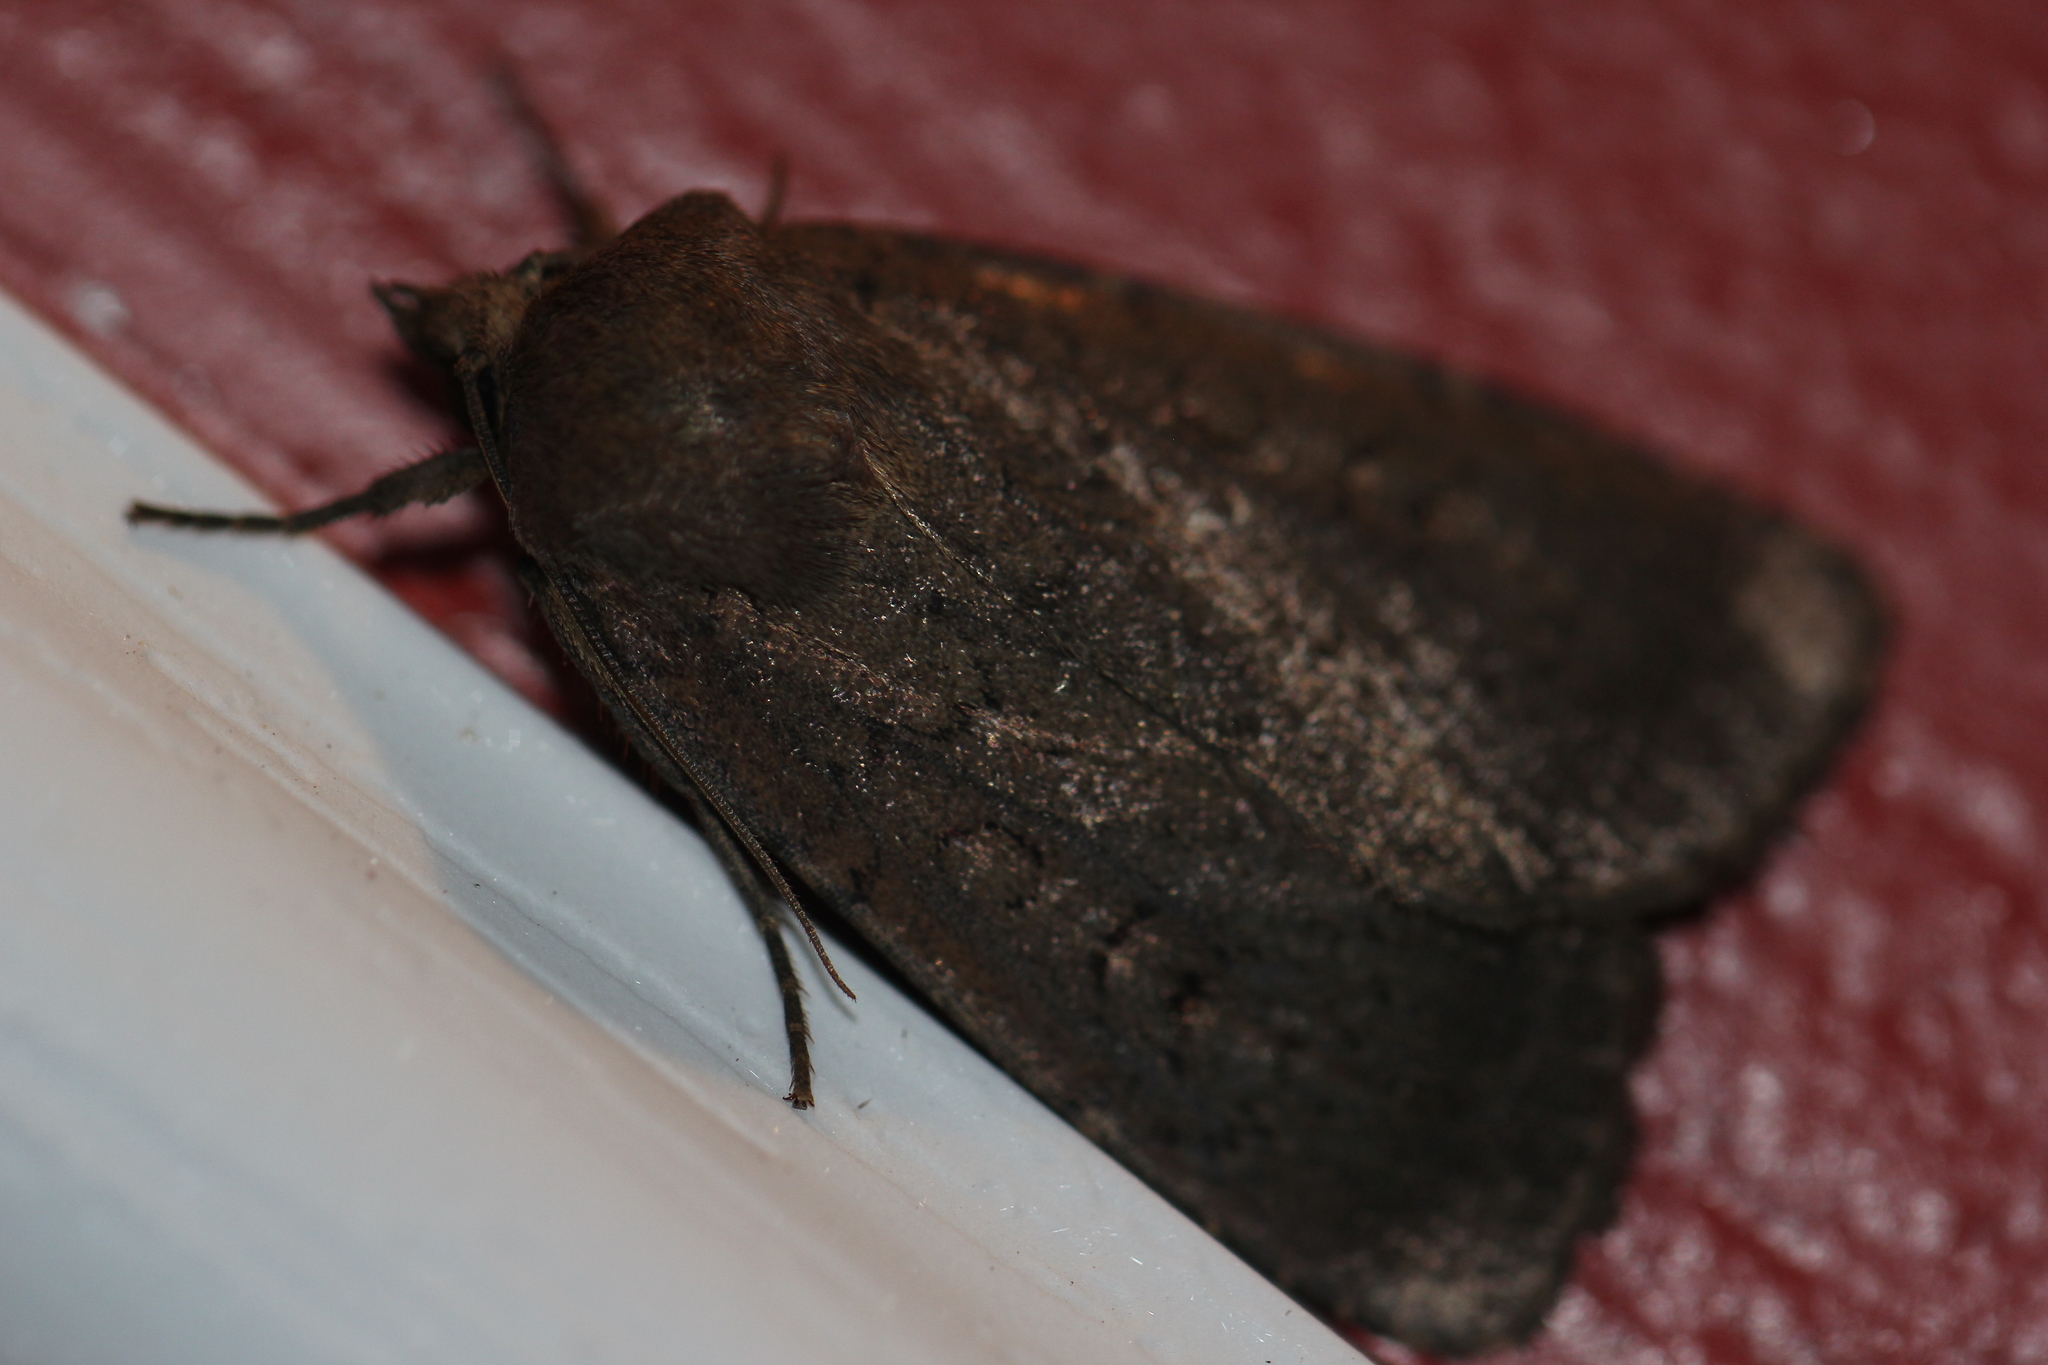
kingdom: Animalia
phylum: Arthropoda
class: Insecta
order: Lepidoptera
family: Noctuidae
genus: Graphiphora
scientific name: Graphiphora augur
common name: Double dart
